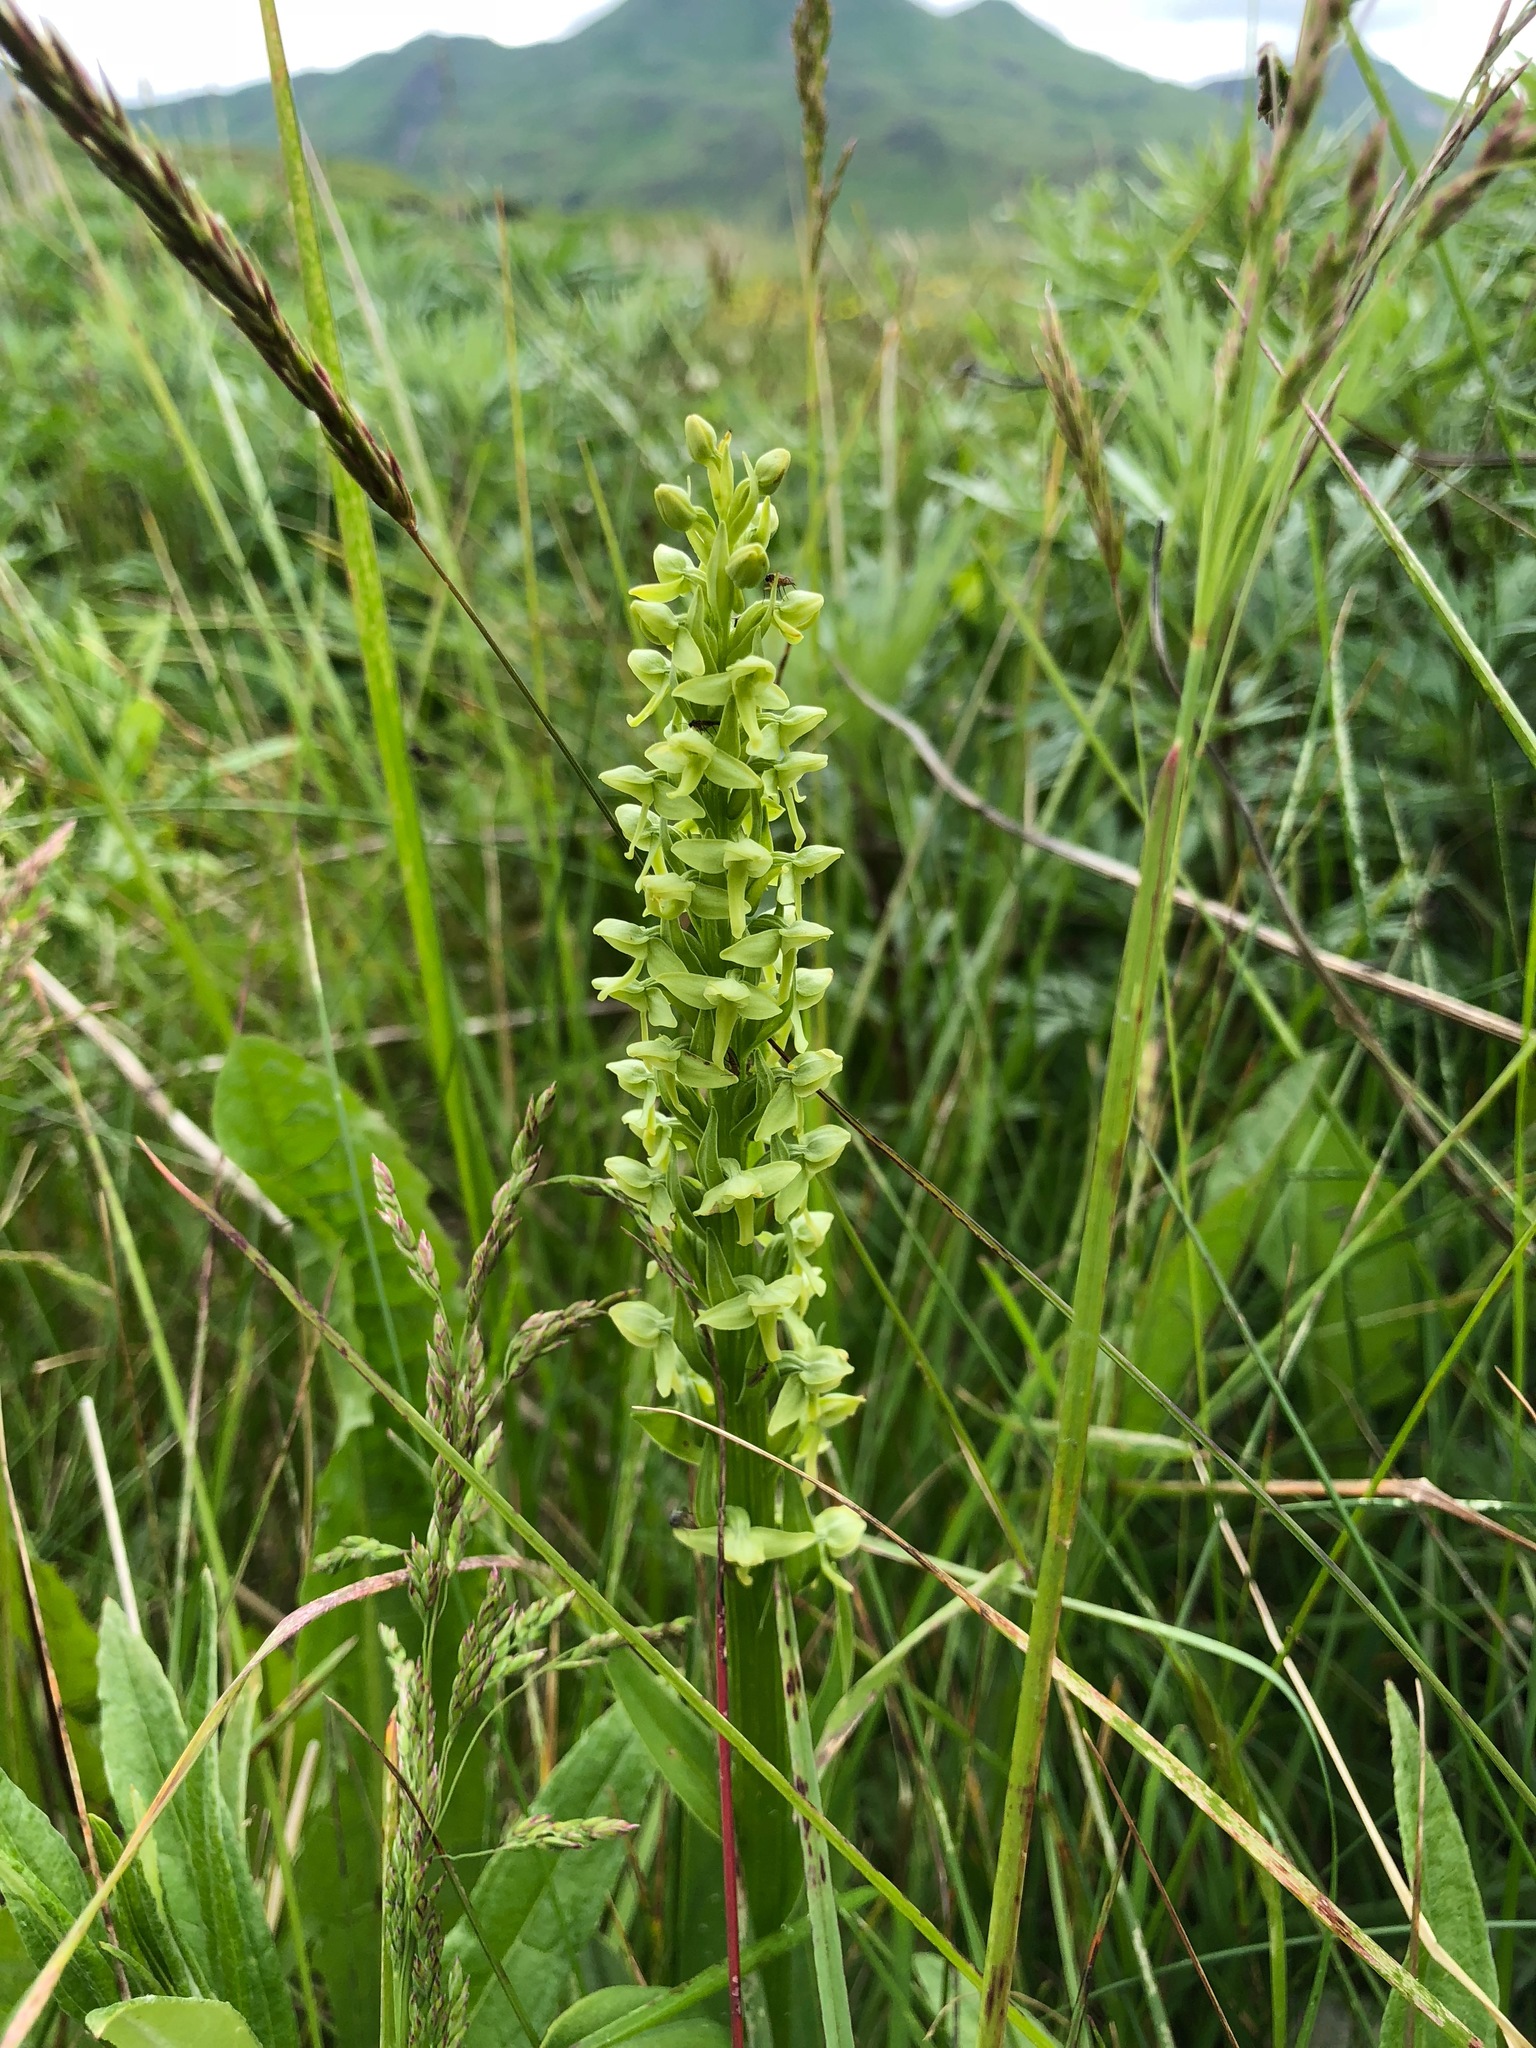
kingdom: Plantae
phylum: Tracheophyta
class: Liliopsida
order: Asparagales
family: Orchidaceae
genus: Platanthera
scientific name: Platanthera convallariifolia
